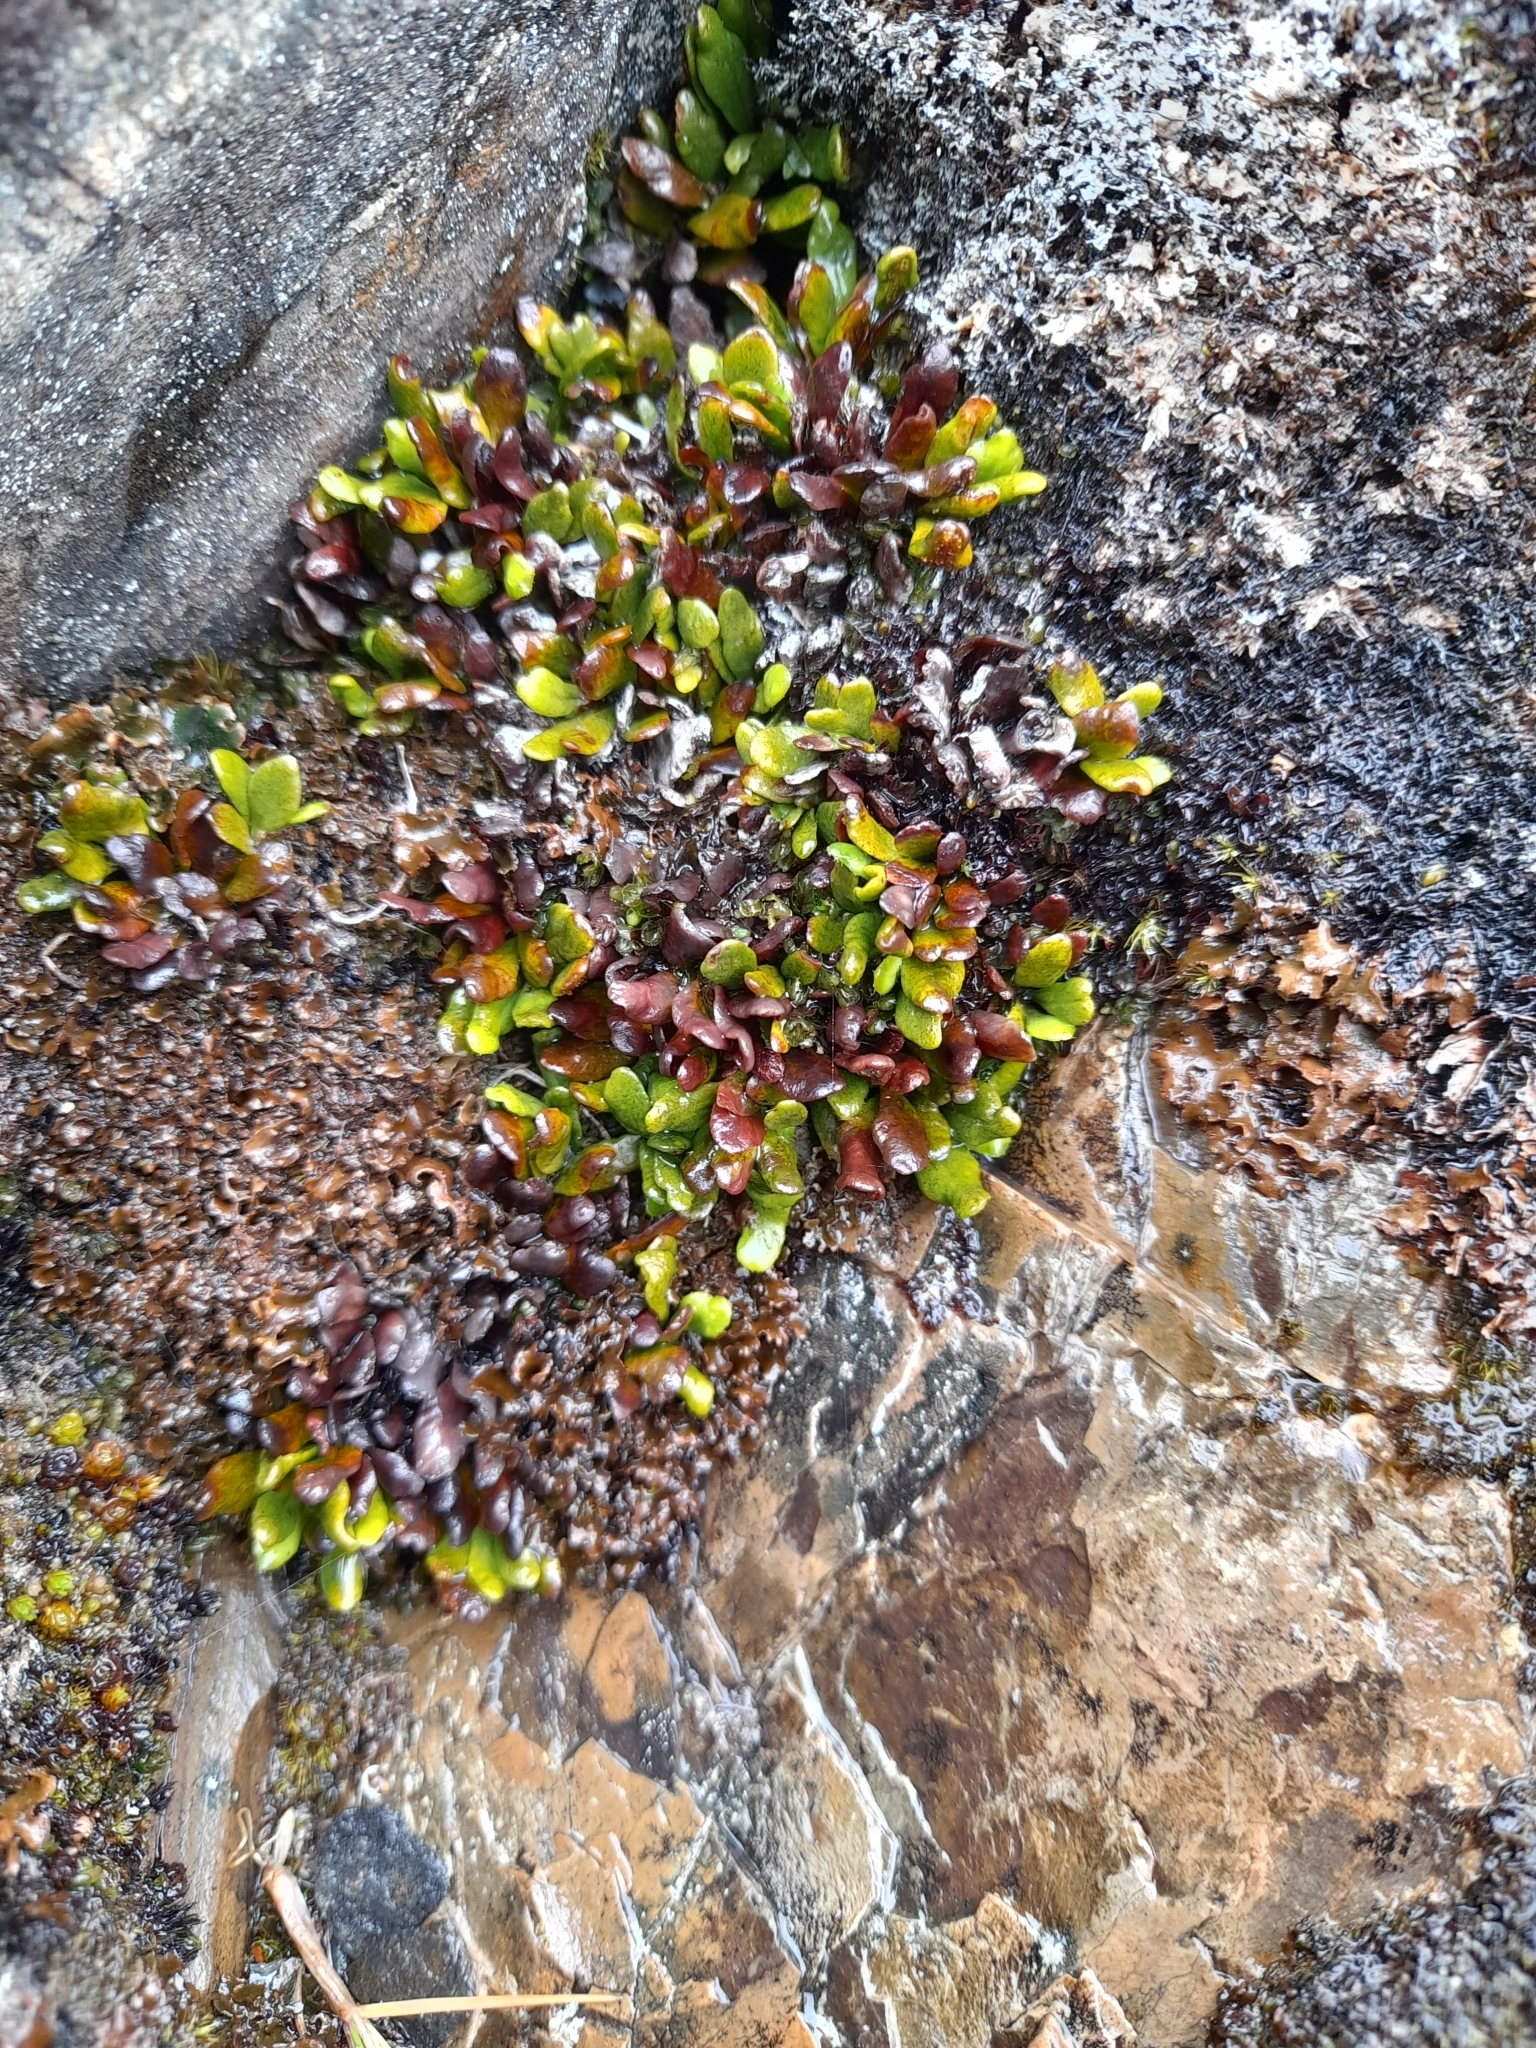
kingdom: Plantae
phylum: Tracheophyta
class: Polypodiopsida
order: Polypodiales
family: Polypodiaceae
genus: Notogrammitis
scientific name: Notogrammitis crassior
